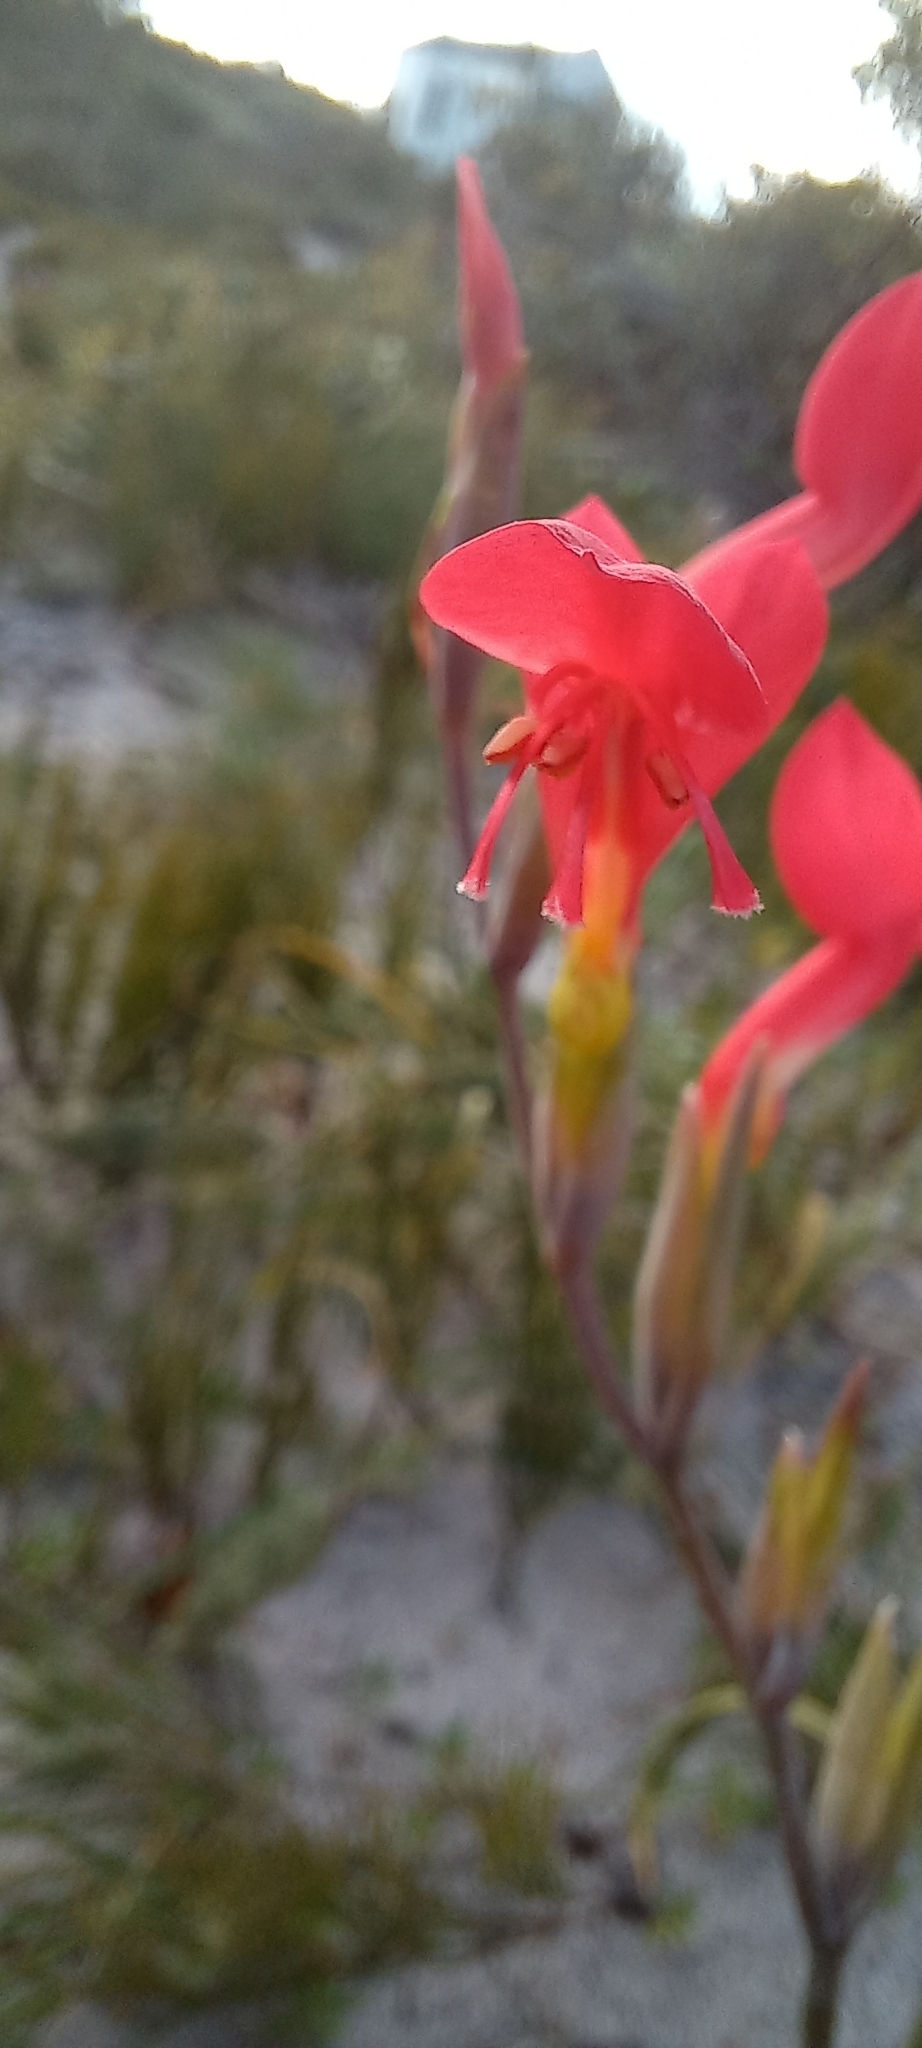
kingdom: Plantae
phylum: Tracheophyta
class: Liliopsida
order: Asparagales
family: Iridaceae
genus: Gladiolus
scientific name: Gladiolus cunonius
